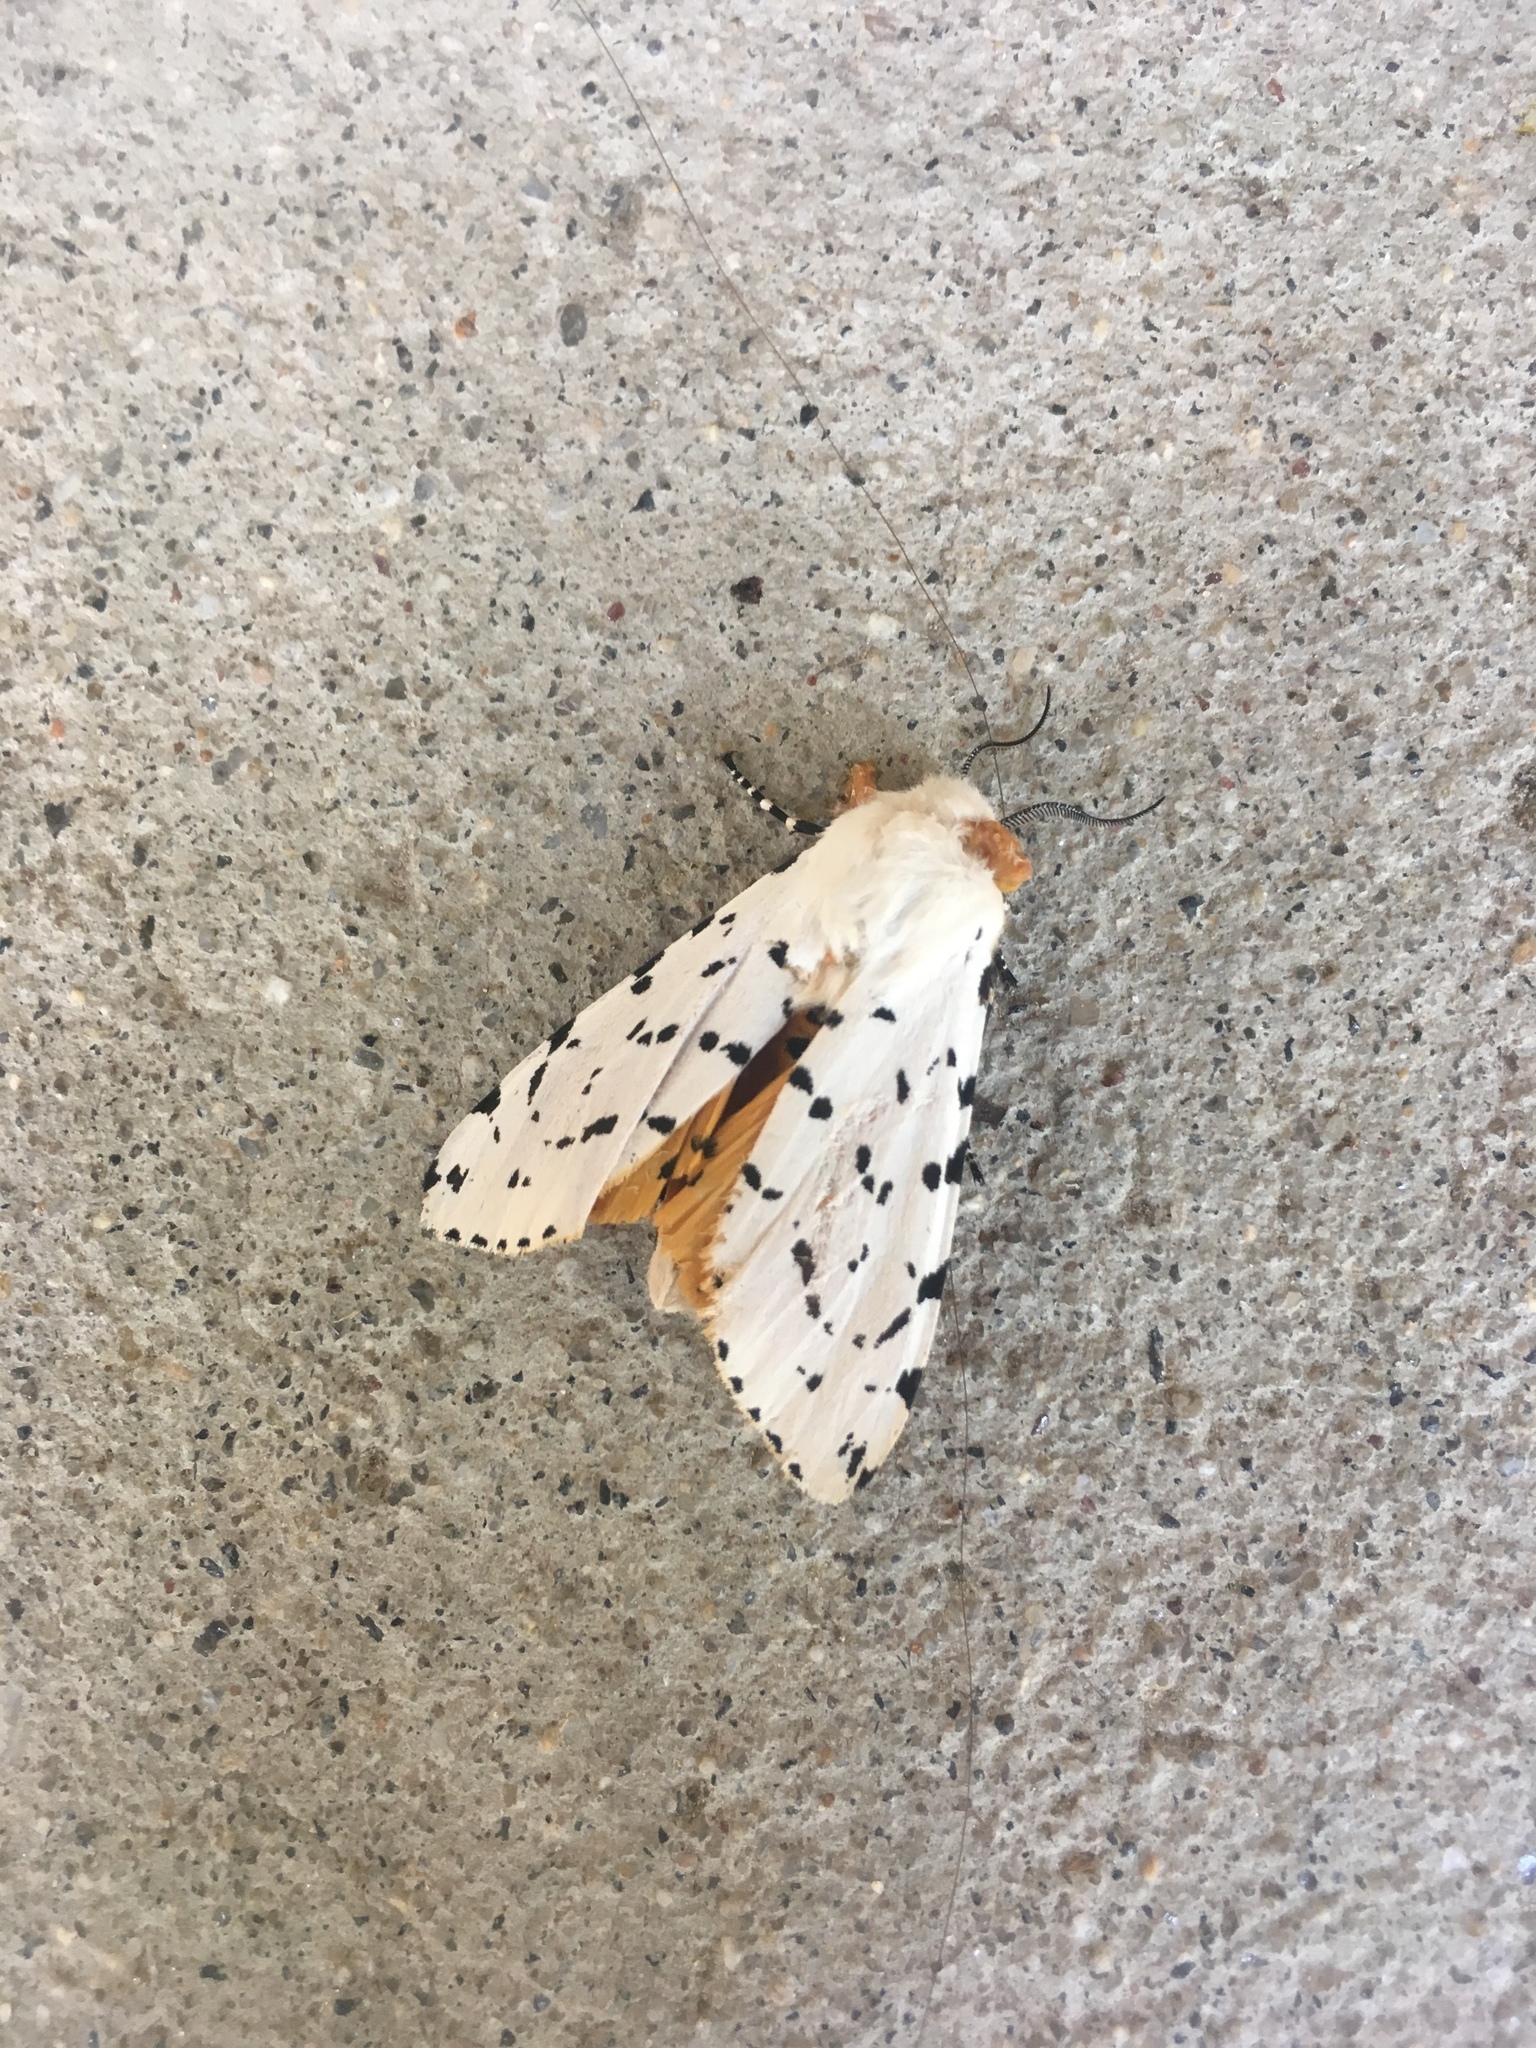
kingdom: Animalia
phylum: Arthropoda
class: Insecta
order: Lepidoptera
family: Erebidae
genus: Estigmene
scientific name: Estigmene acrea
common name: Salt marsh moth
